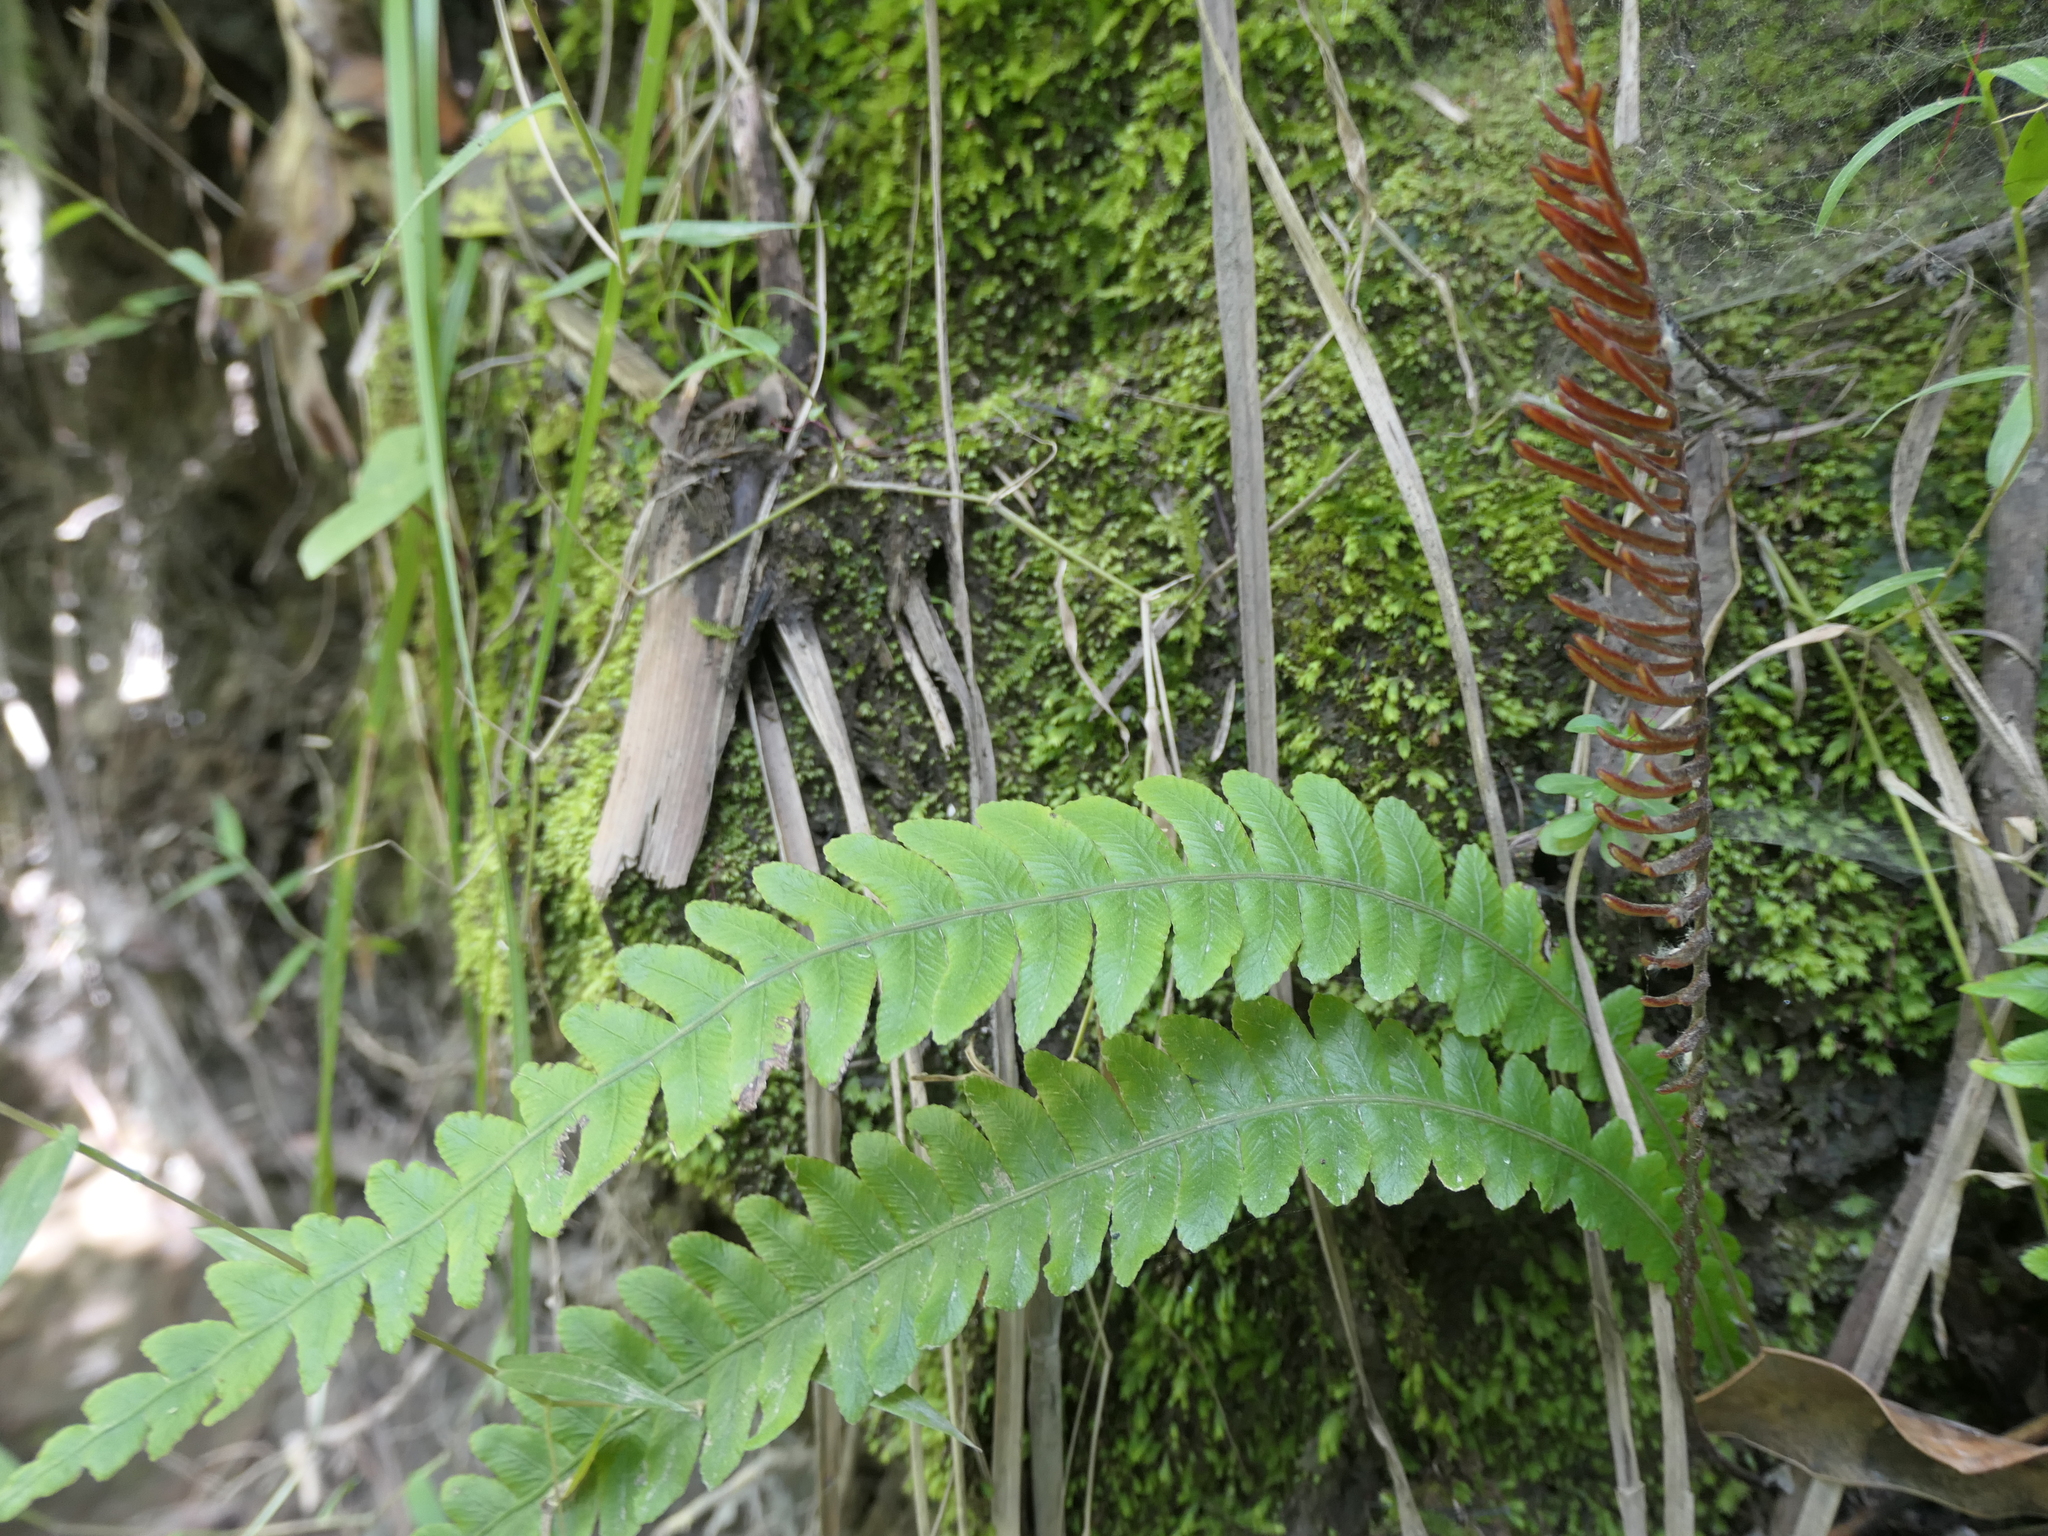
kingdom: Plantae
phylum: Tracheophyta
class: Polypodiopsida
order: Polypodiales
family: Blechnaceae
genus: Austroblechnum
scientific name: Austroblechnum lanceolatum
